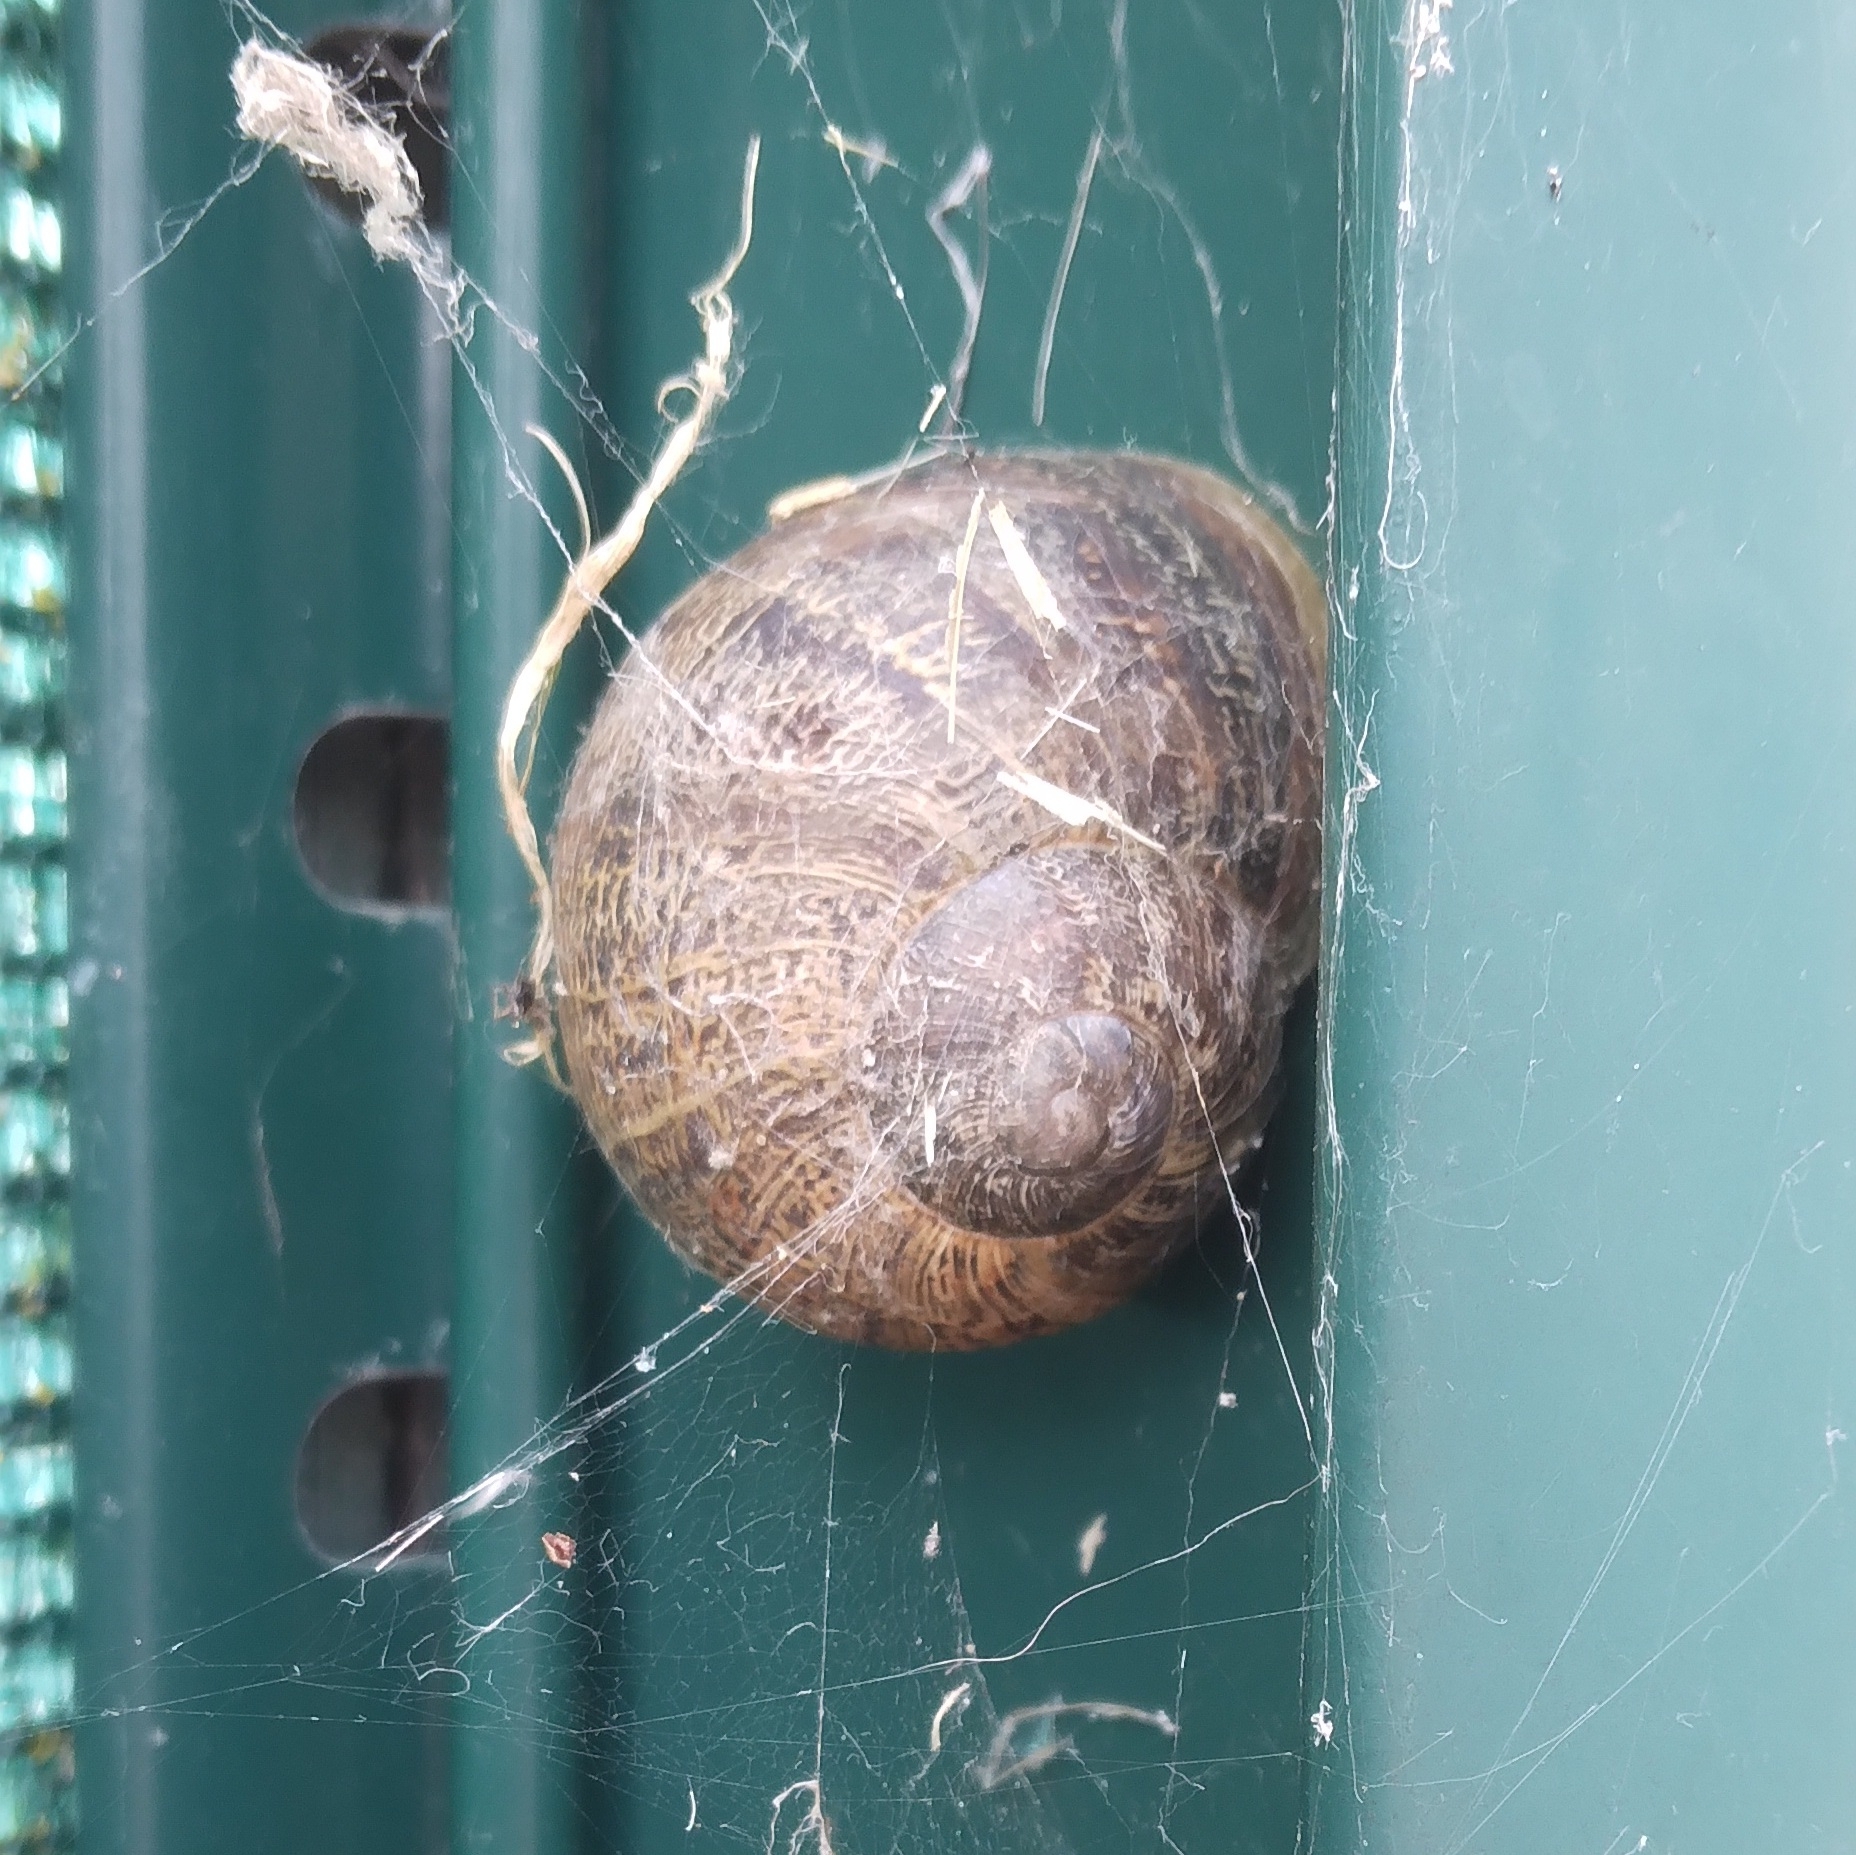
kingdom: Animalia
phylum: Mollusca
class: Gastropoda
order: Stylommatophora
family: Helicidae
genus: Cornu
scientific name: Cornu aspersum
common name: Brown garden snail
